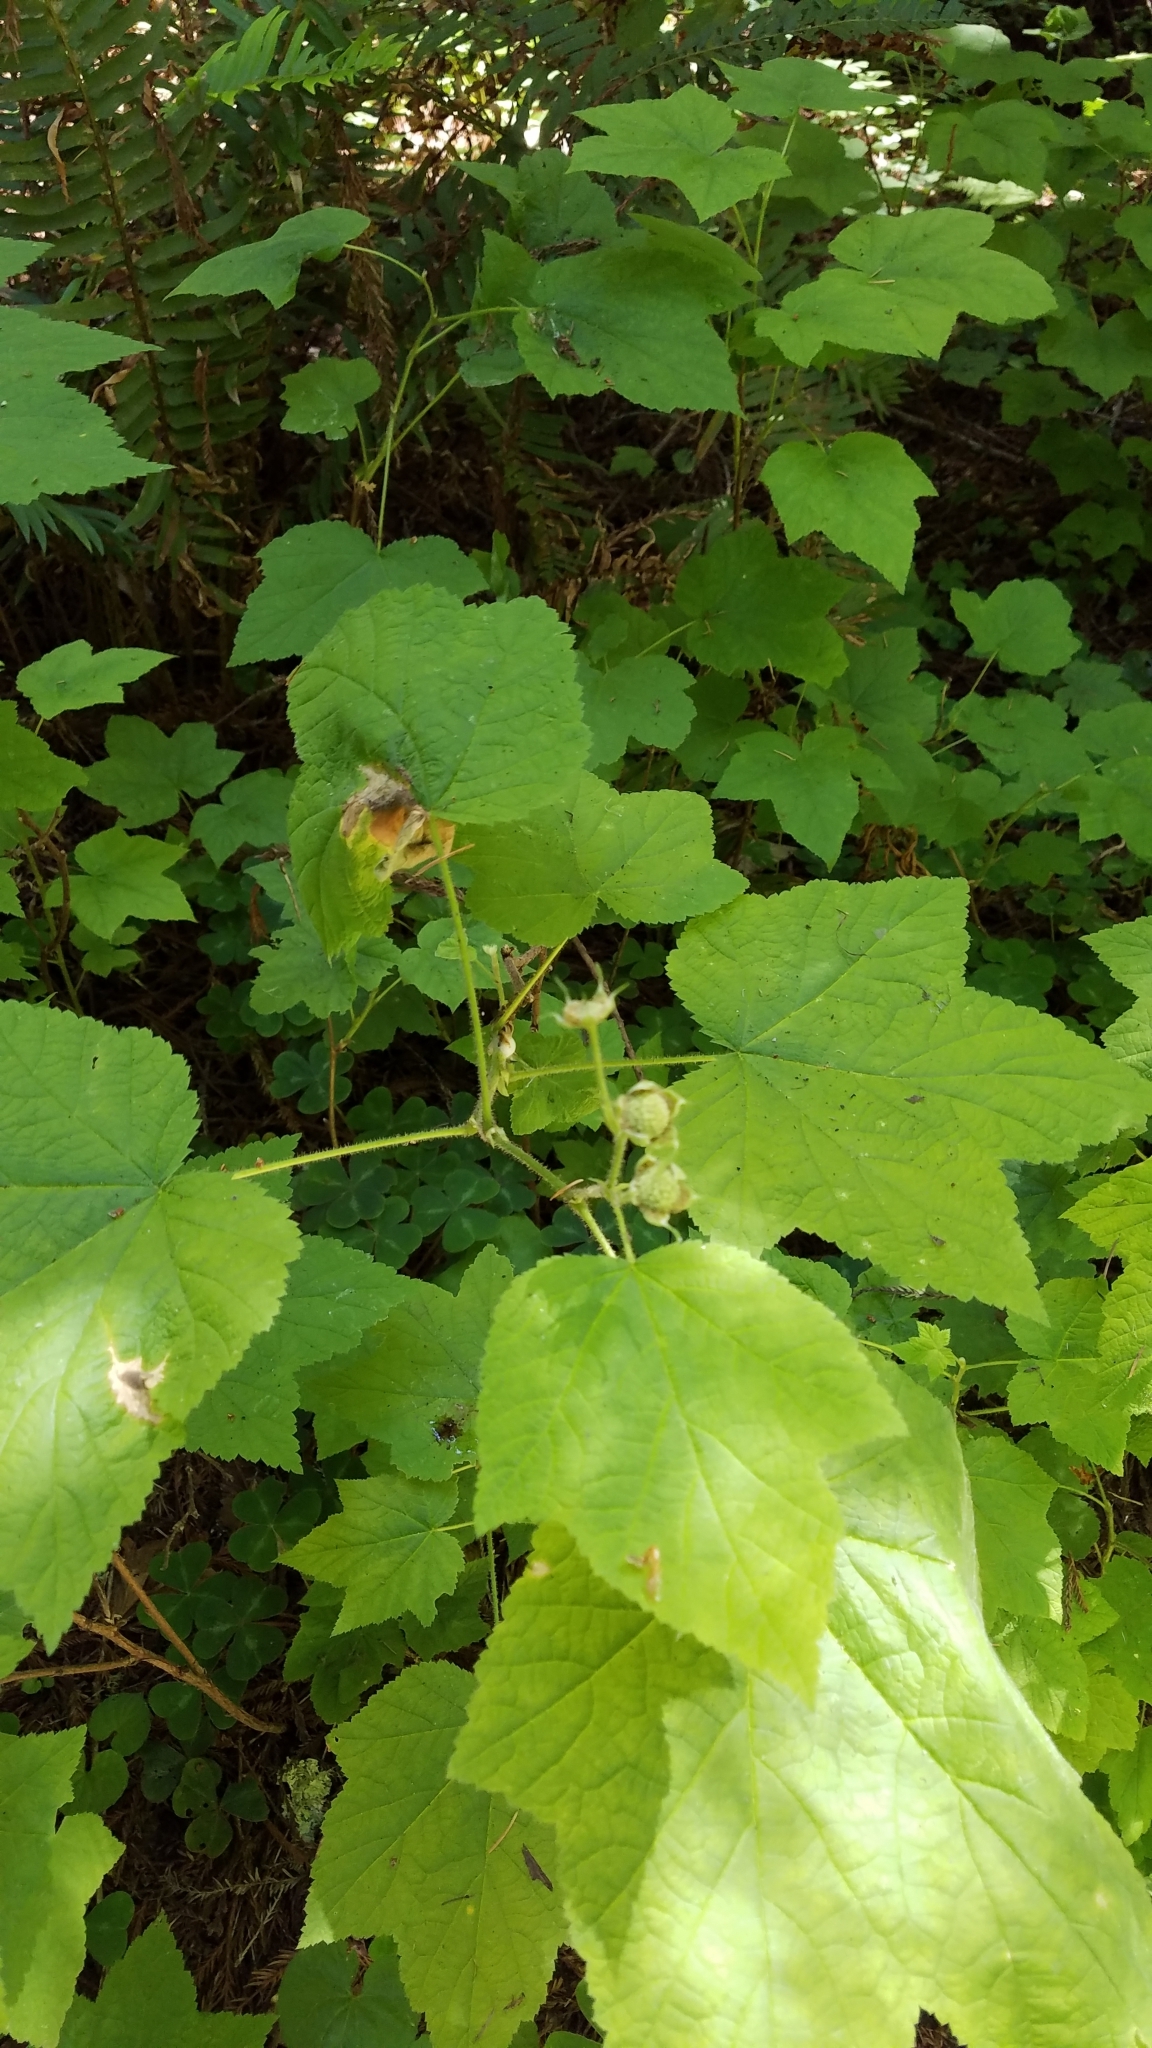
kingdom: Plantae
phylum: Tracheophyta
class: Magnoliopsida
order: Rosales
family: Rosaceae
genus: Rubus
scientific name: Rubus parviflorus
